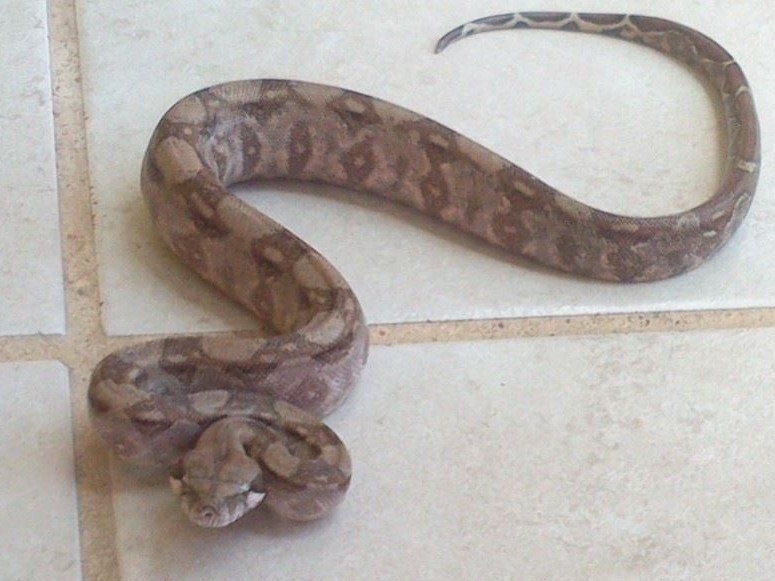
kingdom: Animalia
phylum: Chordata
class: Squamata
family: Boidae
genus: Boa
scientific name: Boa imperator
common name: Central american boa
